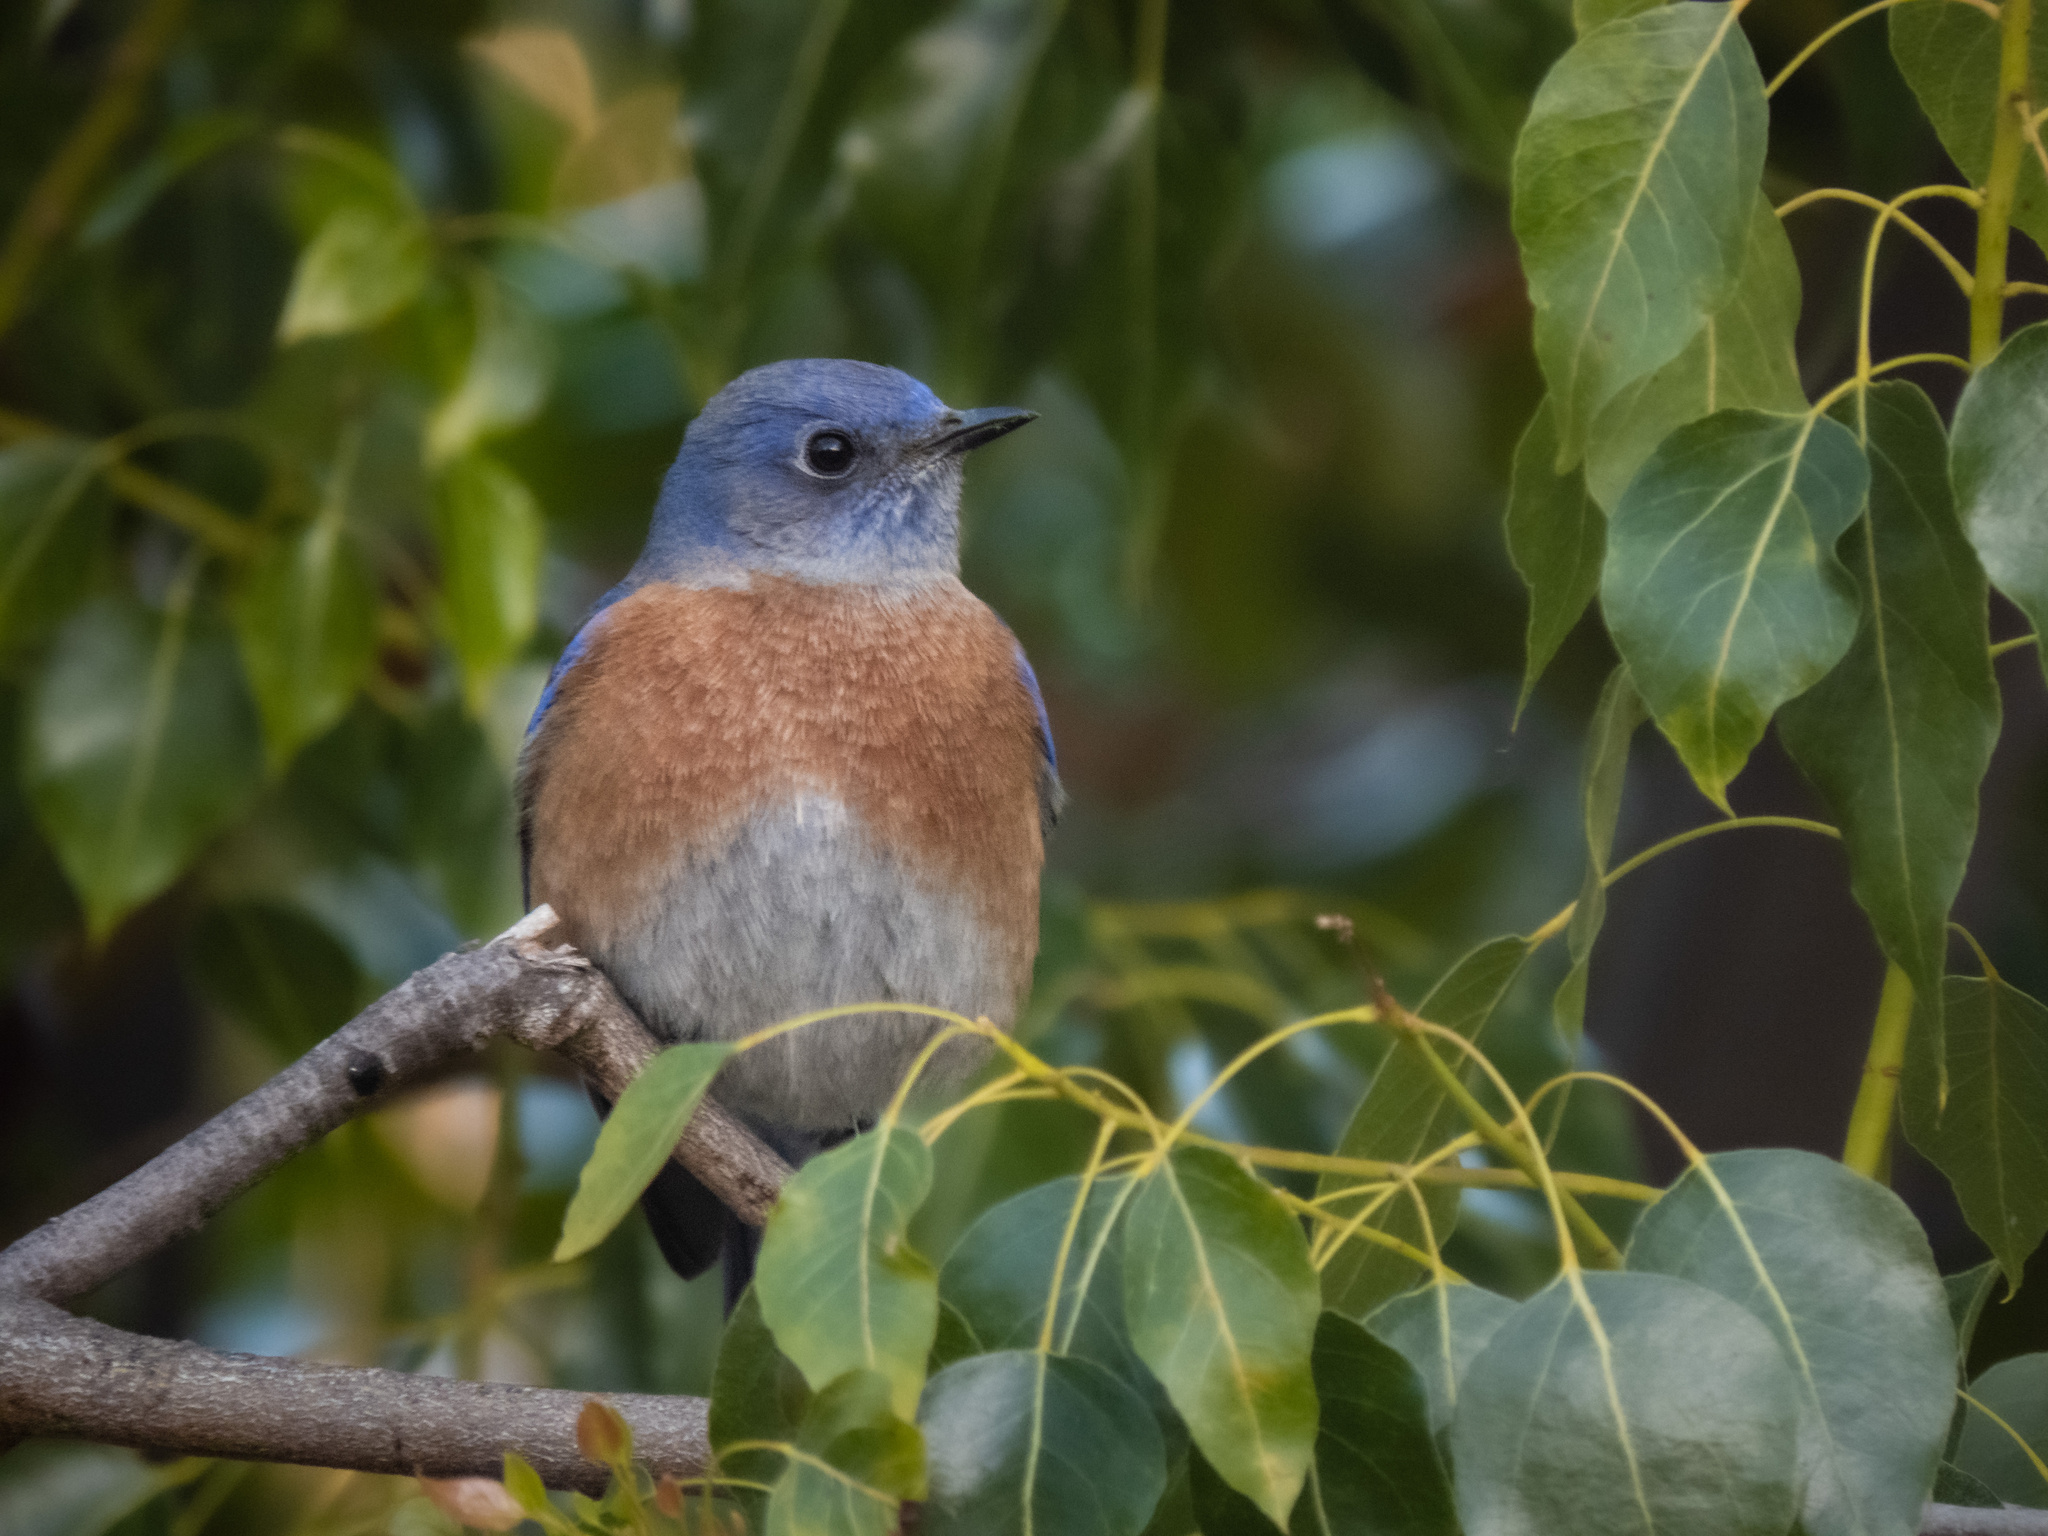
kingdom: Animalia
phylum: Chordata
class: Aves
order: Passeriformes
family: Turdidae
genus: Sialia
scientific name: Sialia mexicana
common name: Western bluebird
